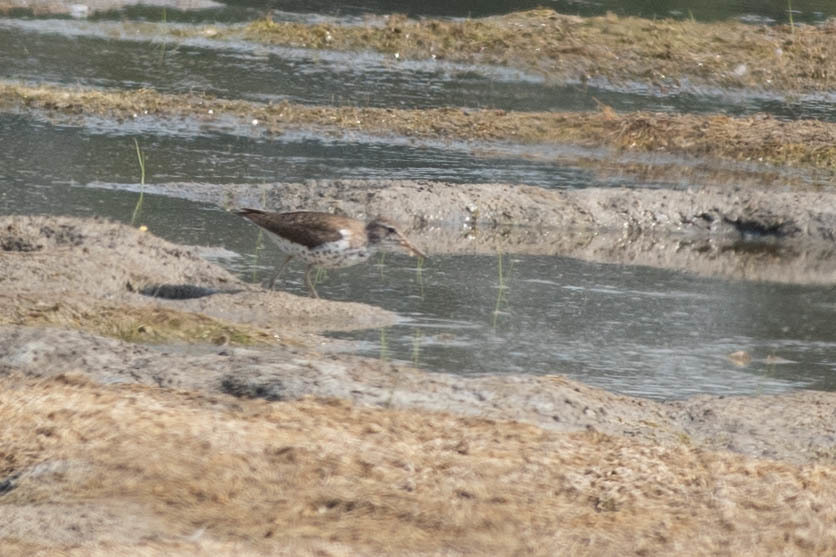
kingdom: Animalia
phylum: Chordata
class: Aves
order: Charadriiformes
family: Scolopacidae
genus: Actitis
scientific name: Actitis macularius
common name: Spotted sandpiper
